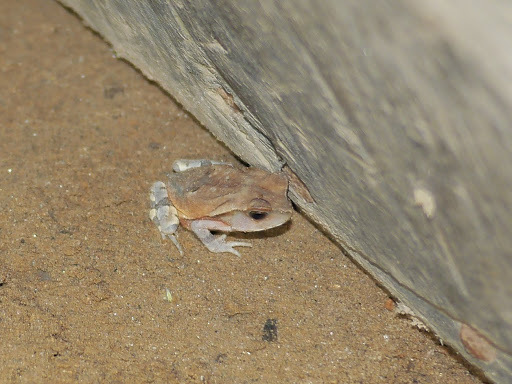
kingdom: Animalia
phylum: Chordata
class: Amphibia
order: Anura
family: Bufonidae
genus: Sclerophrys
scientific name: Sclerophrys superciliaris
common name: Cameroon toad
